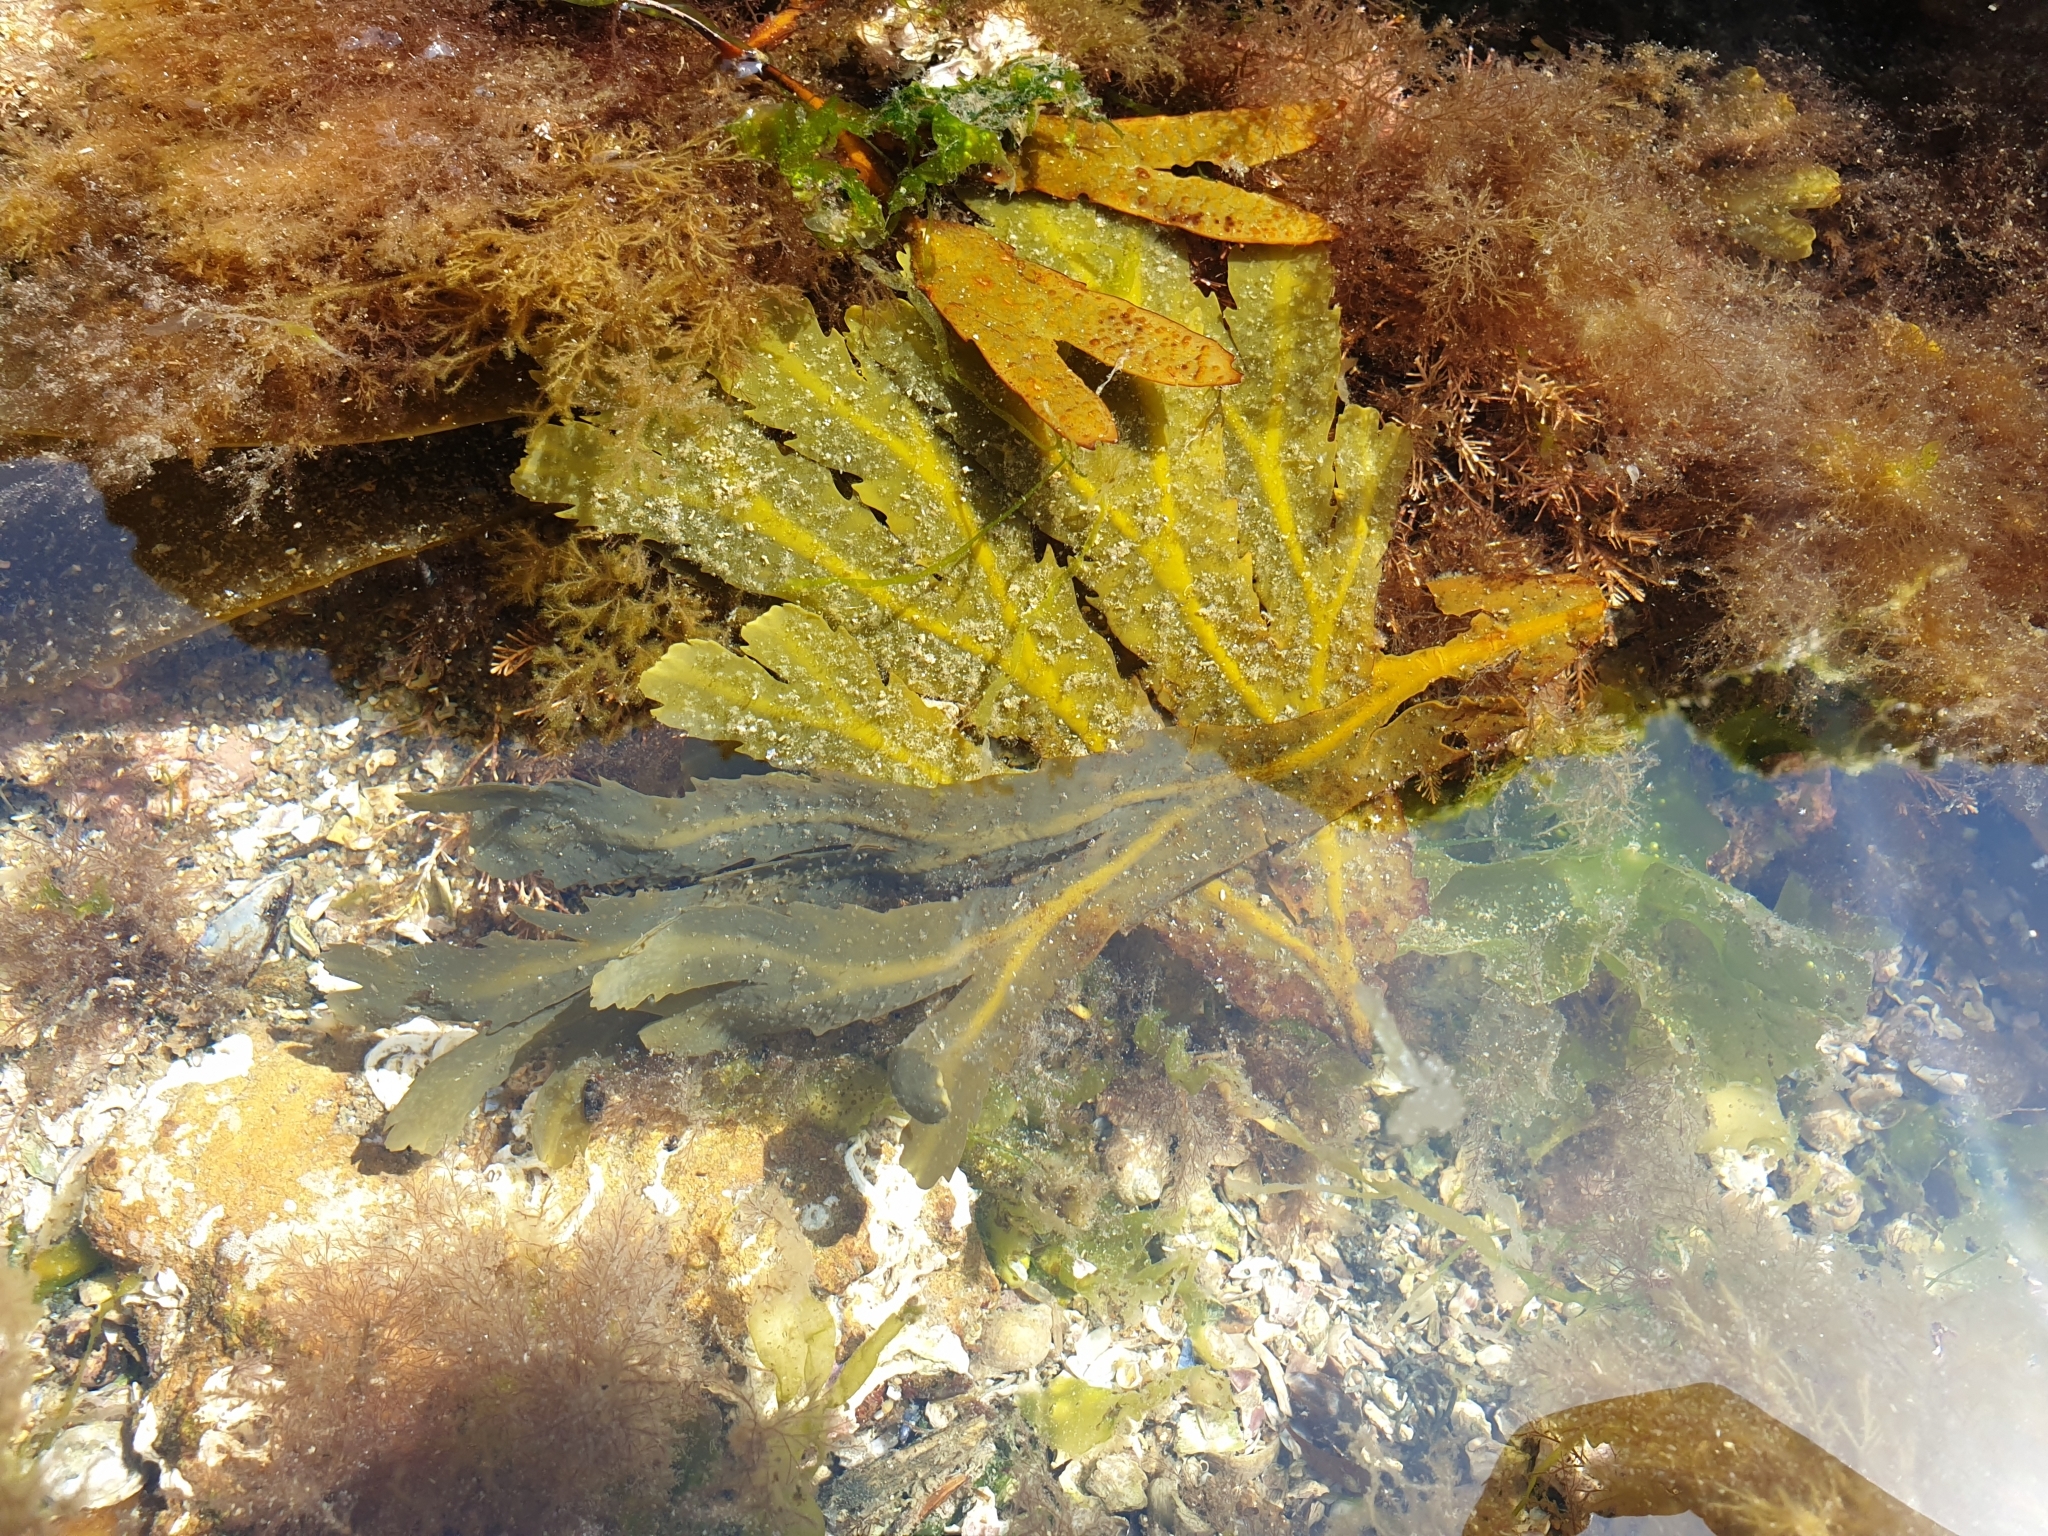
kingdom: Chromista
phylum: Ochrophyta
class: Phaeophyceae
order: Fucales
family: Fucaceae
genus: Fucus
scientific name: Fucus serratus
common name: Toothed wrack
